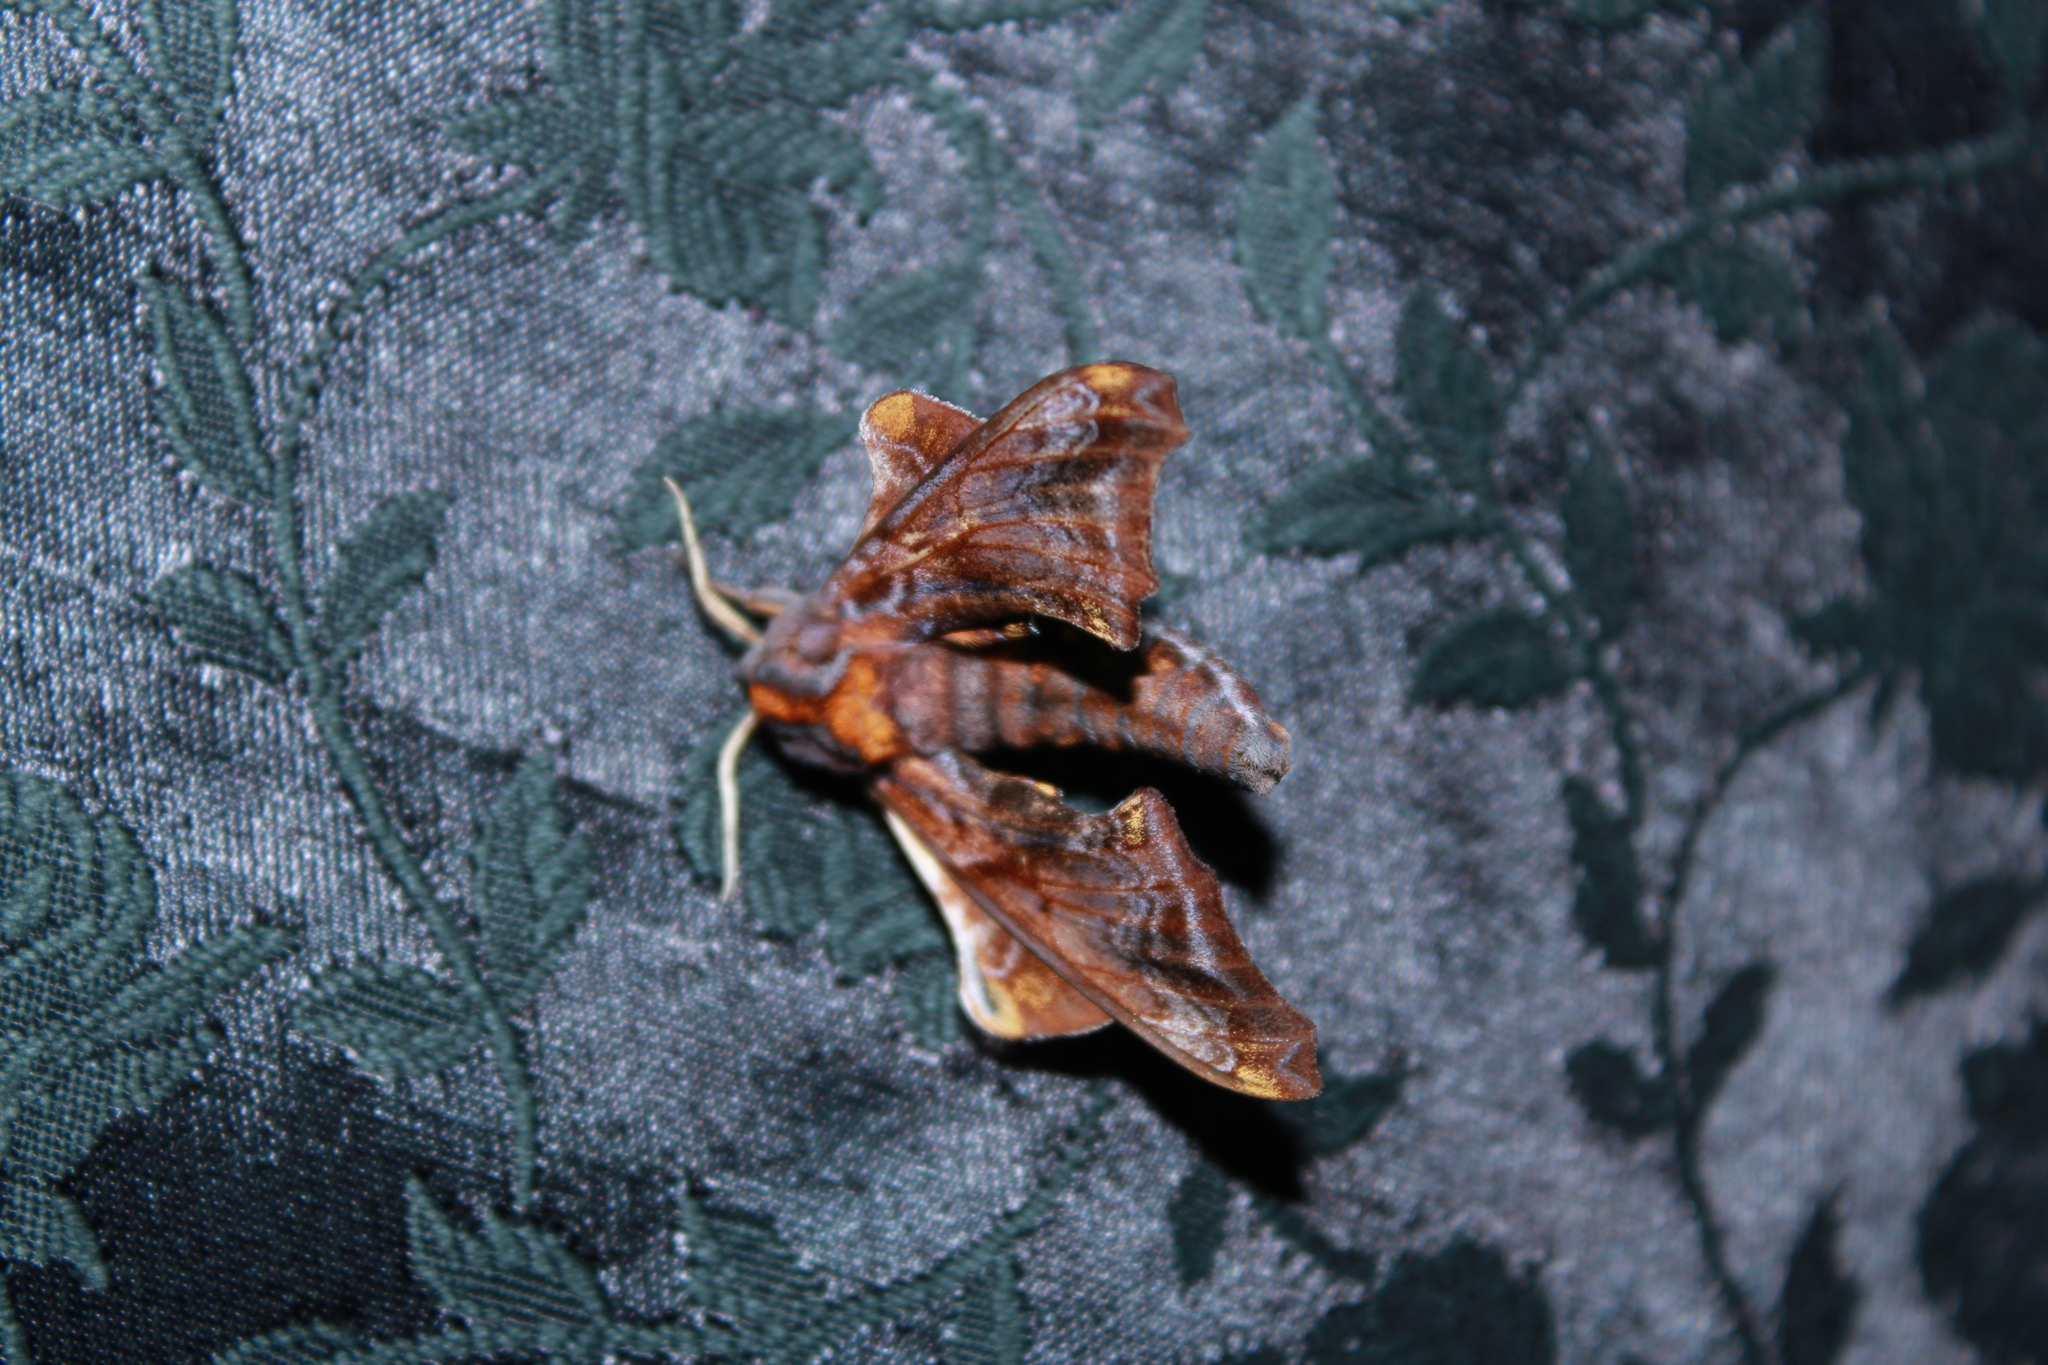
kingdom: Animalia
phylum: Arthropoda
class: Insecta
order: Lepidoptera
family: Sphingidae
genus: Paonias
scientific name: Paonias myops
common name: Small-eyed sphinx
